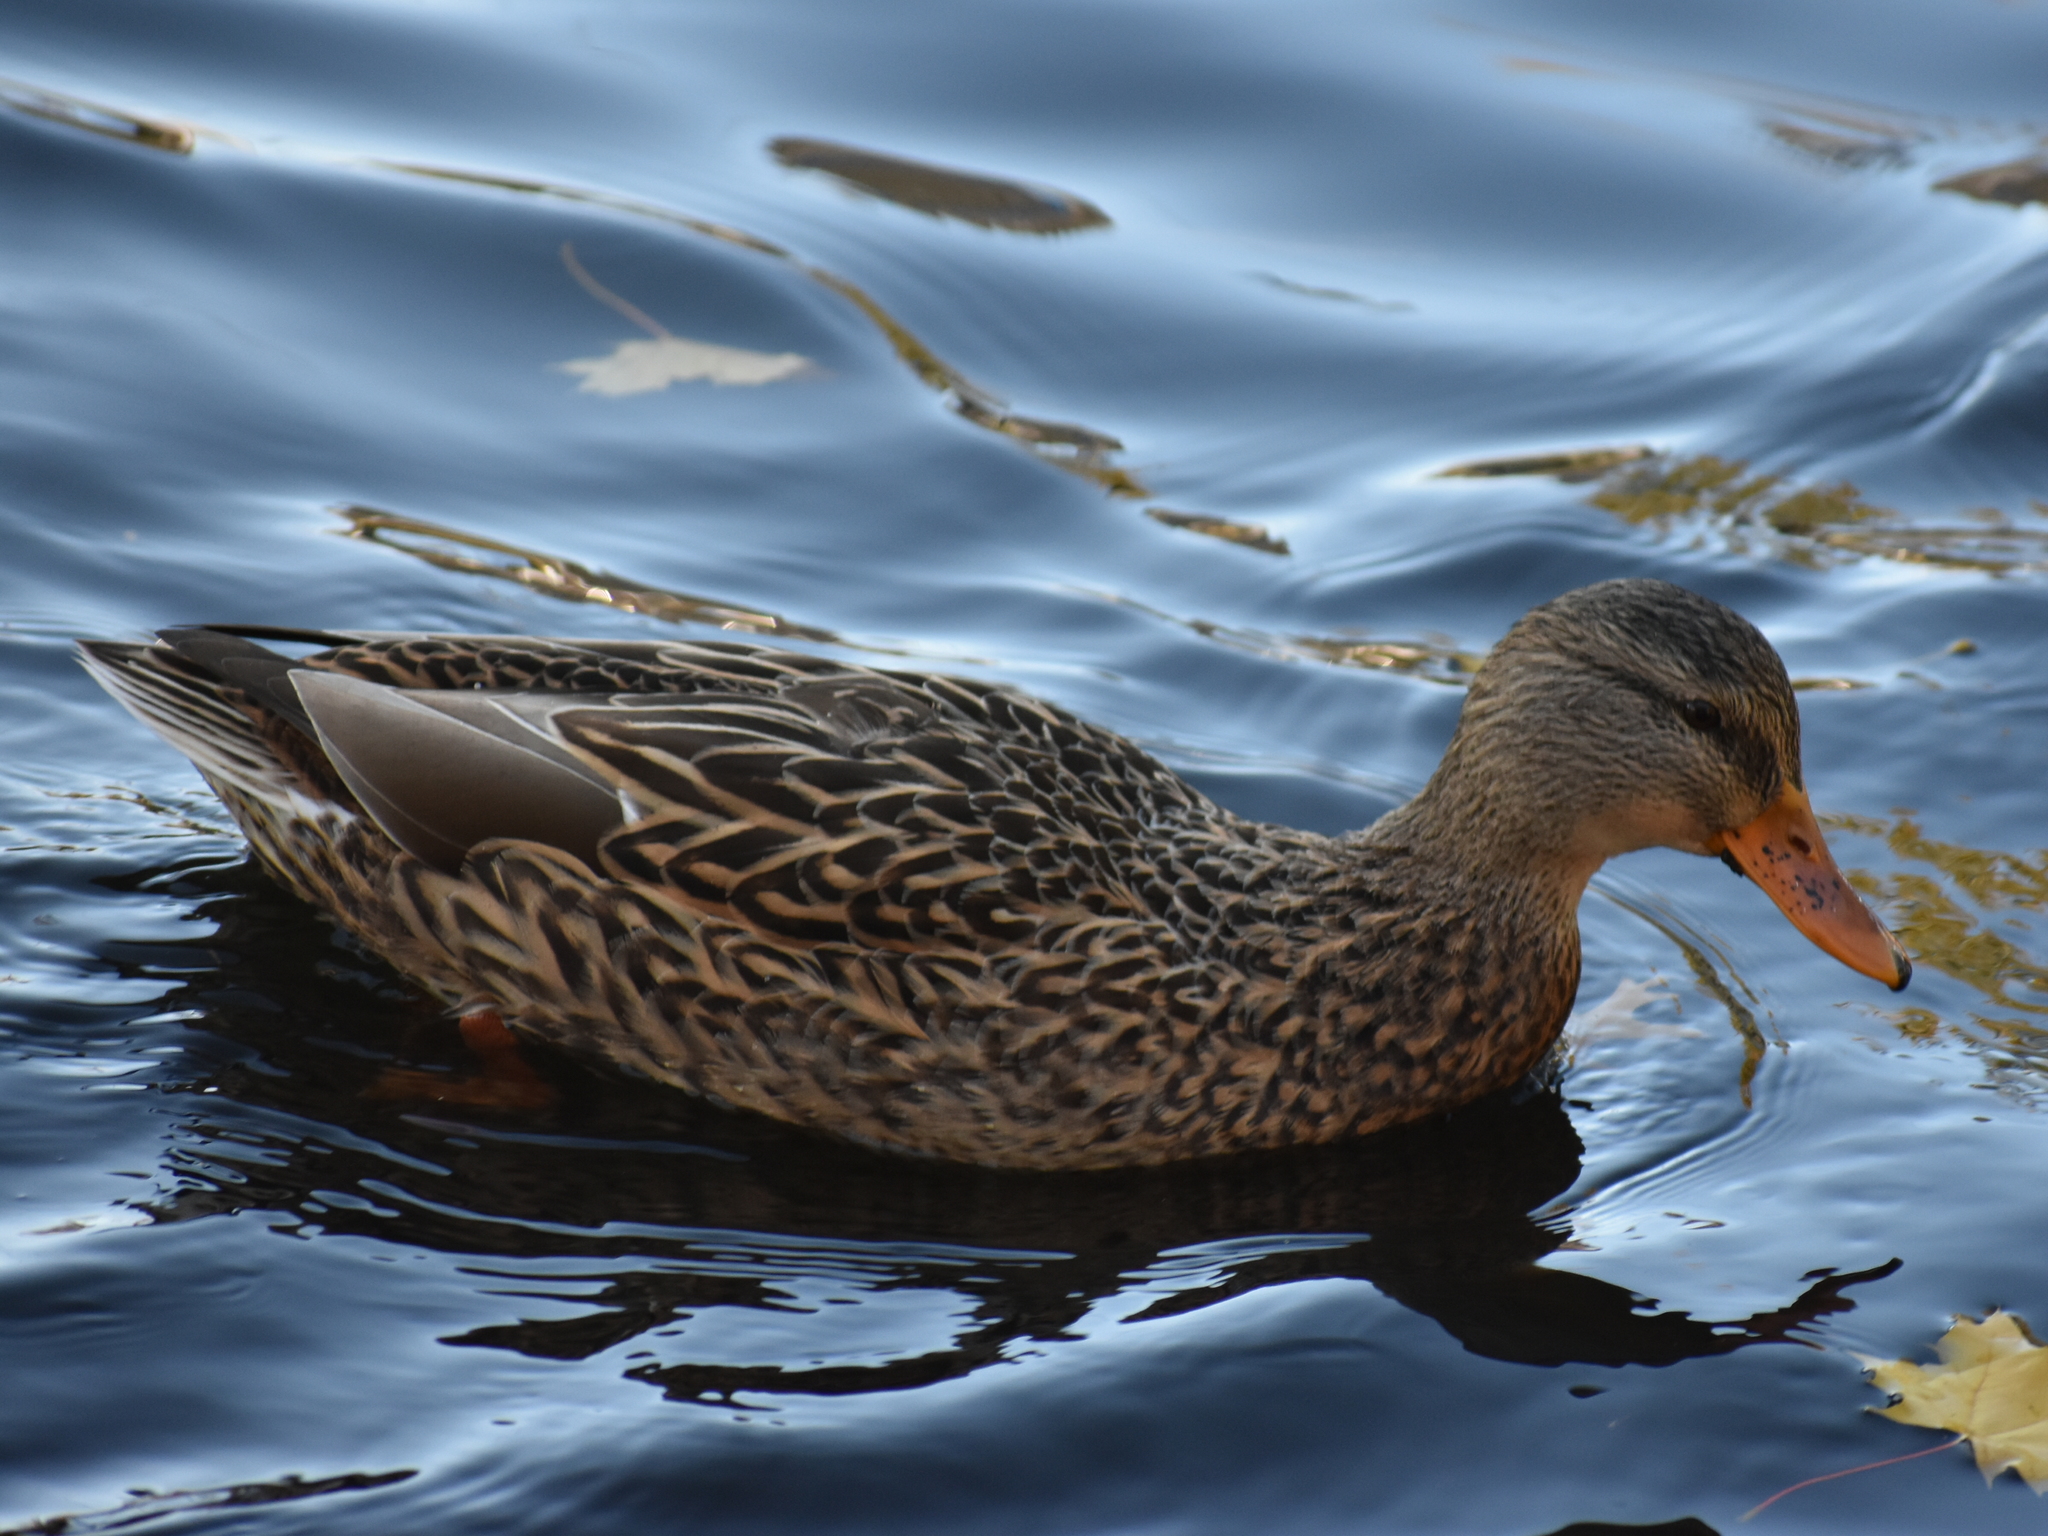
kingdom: Animalia
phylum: Chordata
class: Aves
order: Anseriformes
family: Anatidae
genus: Anas
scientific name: Anas platyrhynchos
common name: Mallard
